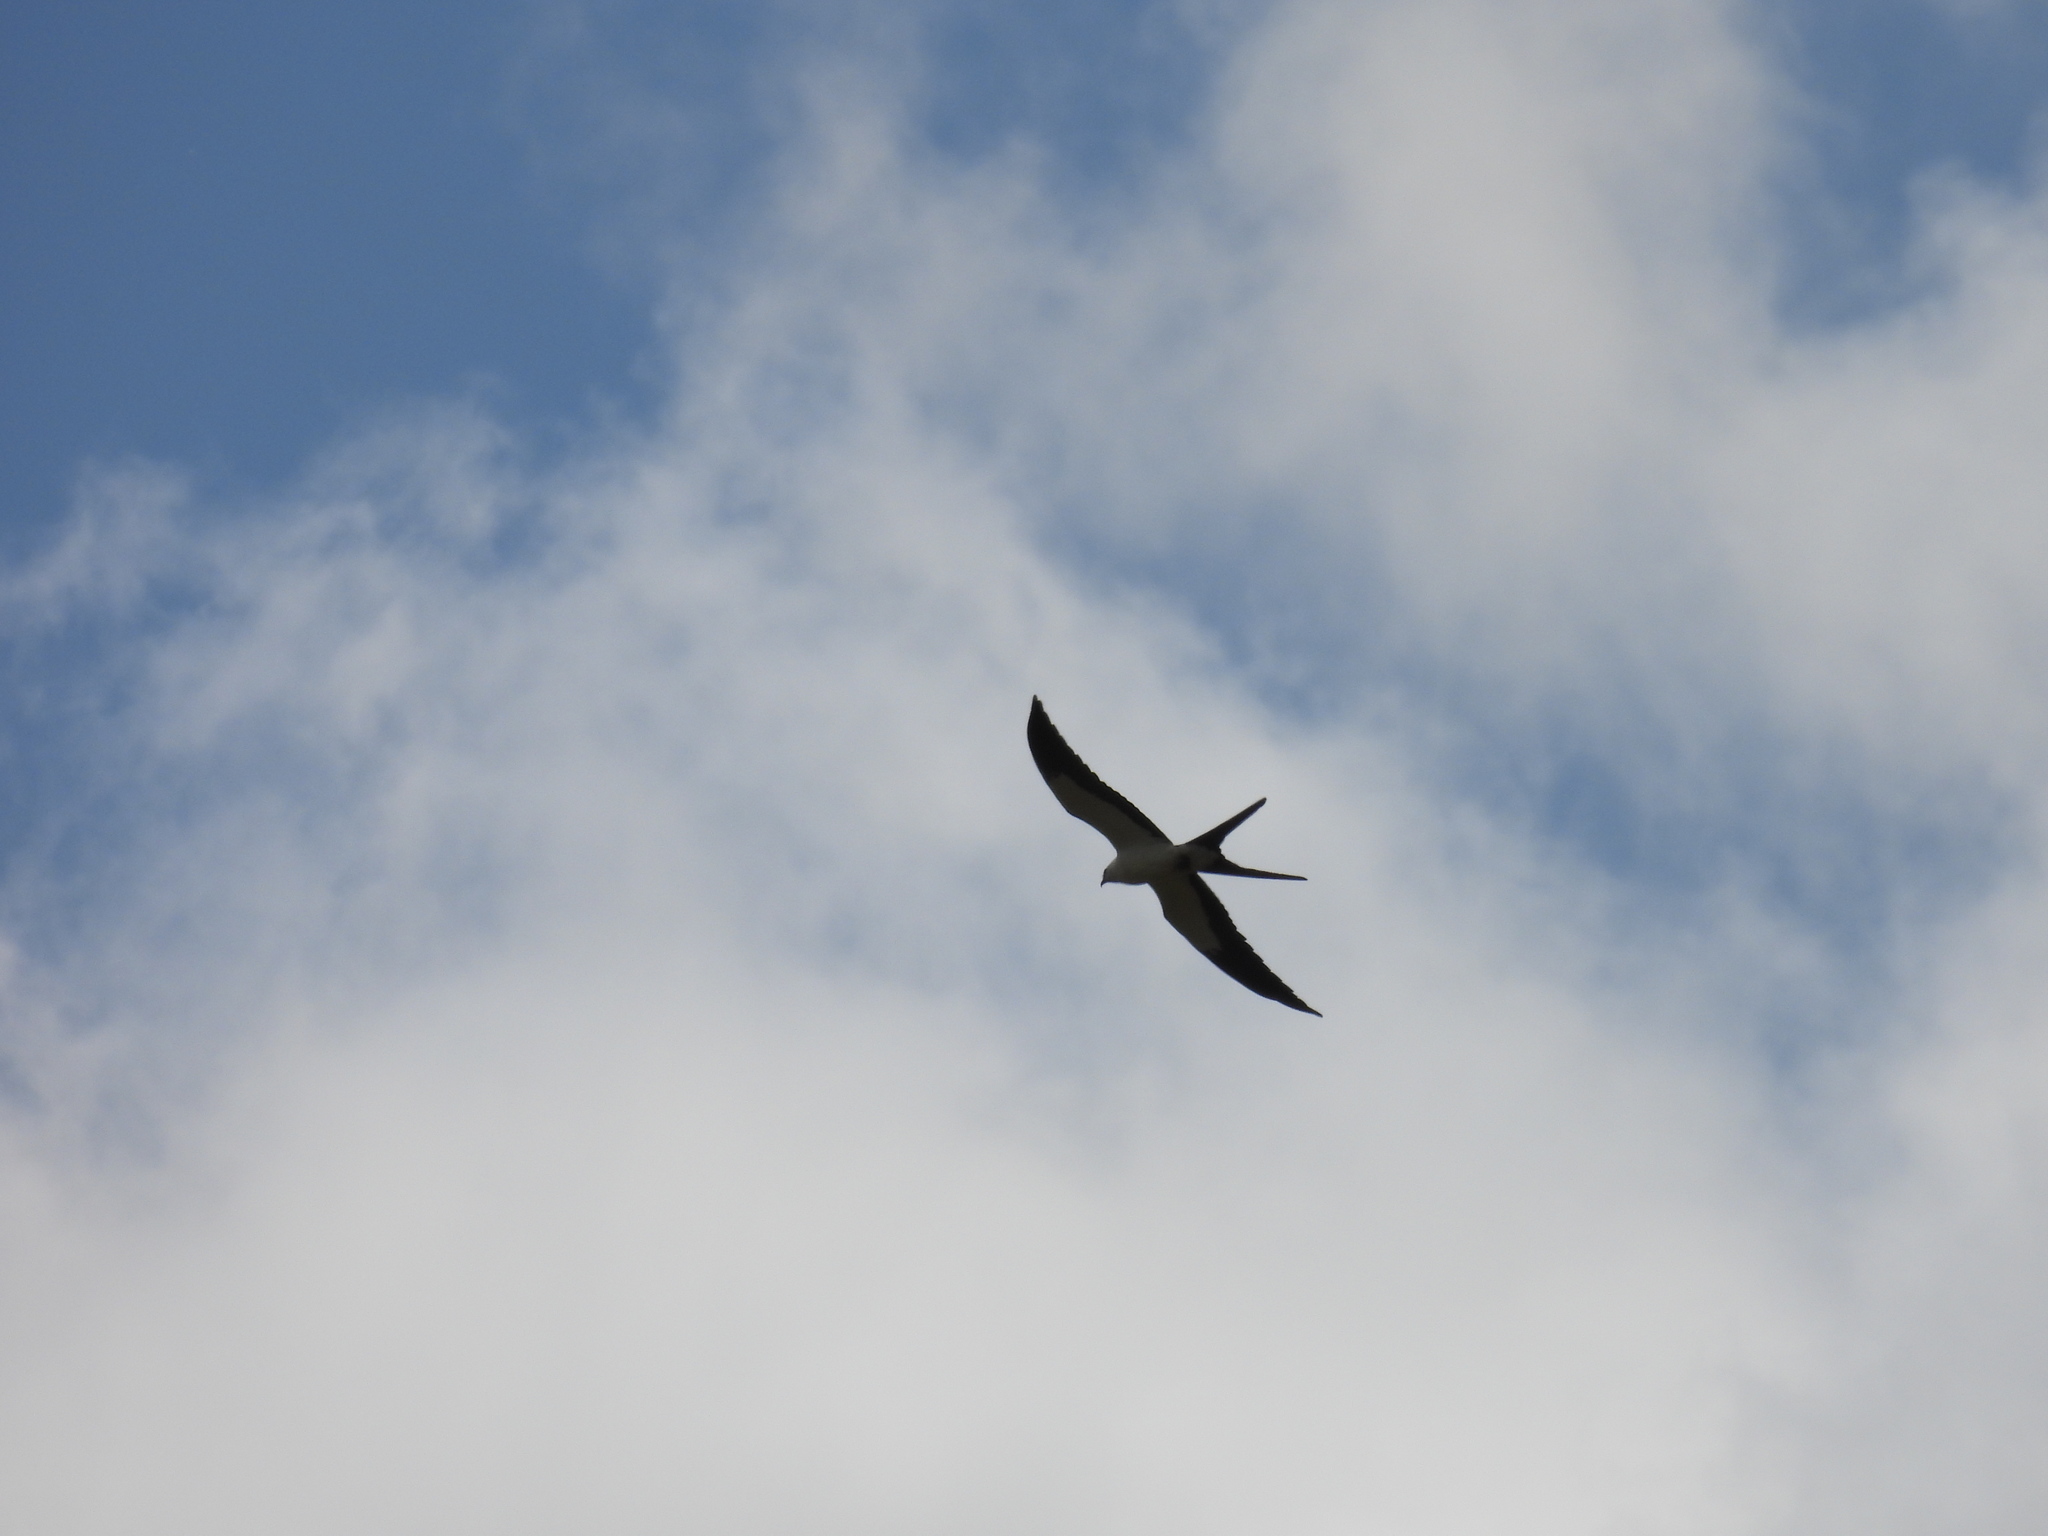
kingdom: Animalia
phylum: Chordata
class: Aves
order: Accipitriformes
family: Accipitridae
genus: Elanoides
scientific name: Elanoides forficatus
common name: Swallow-tailed kite
